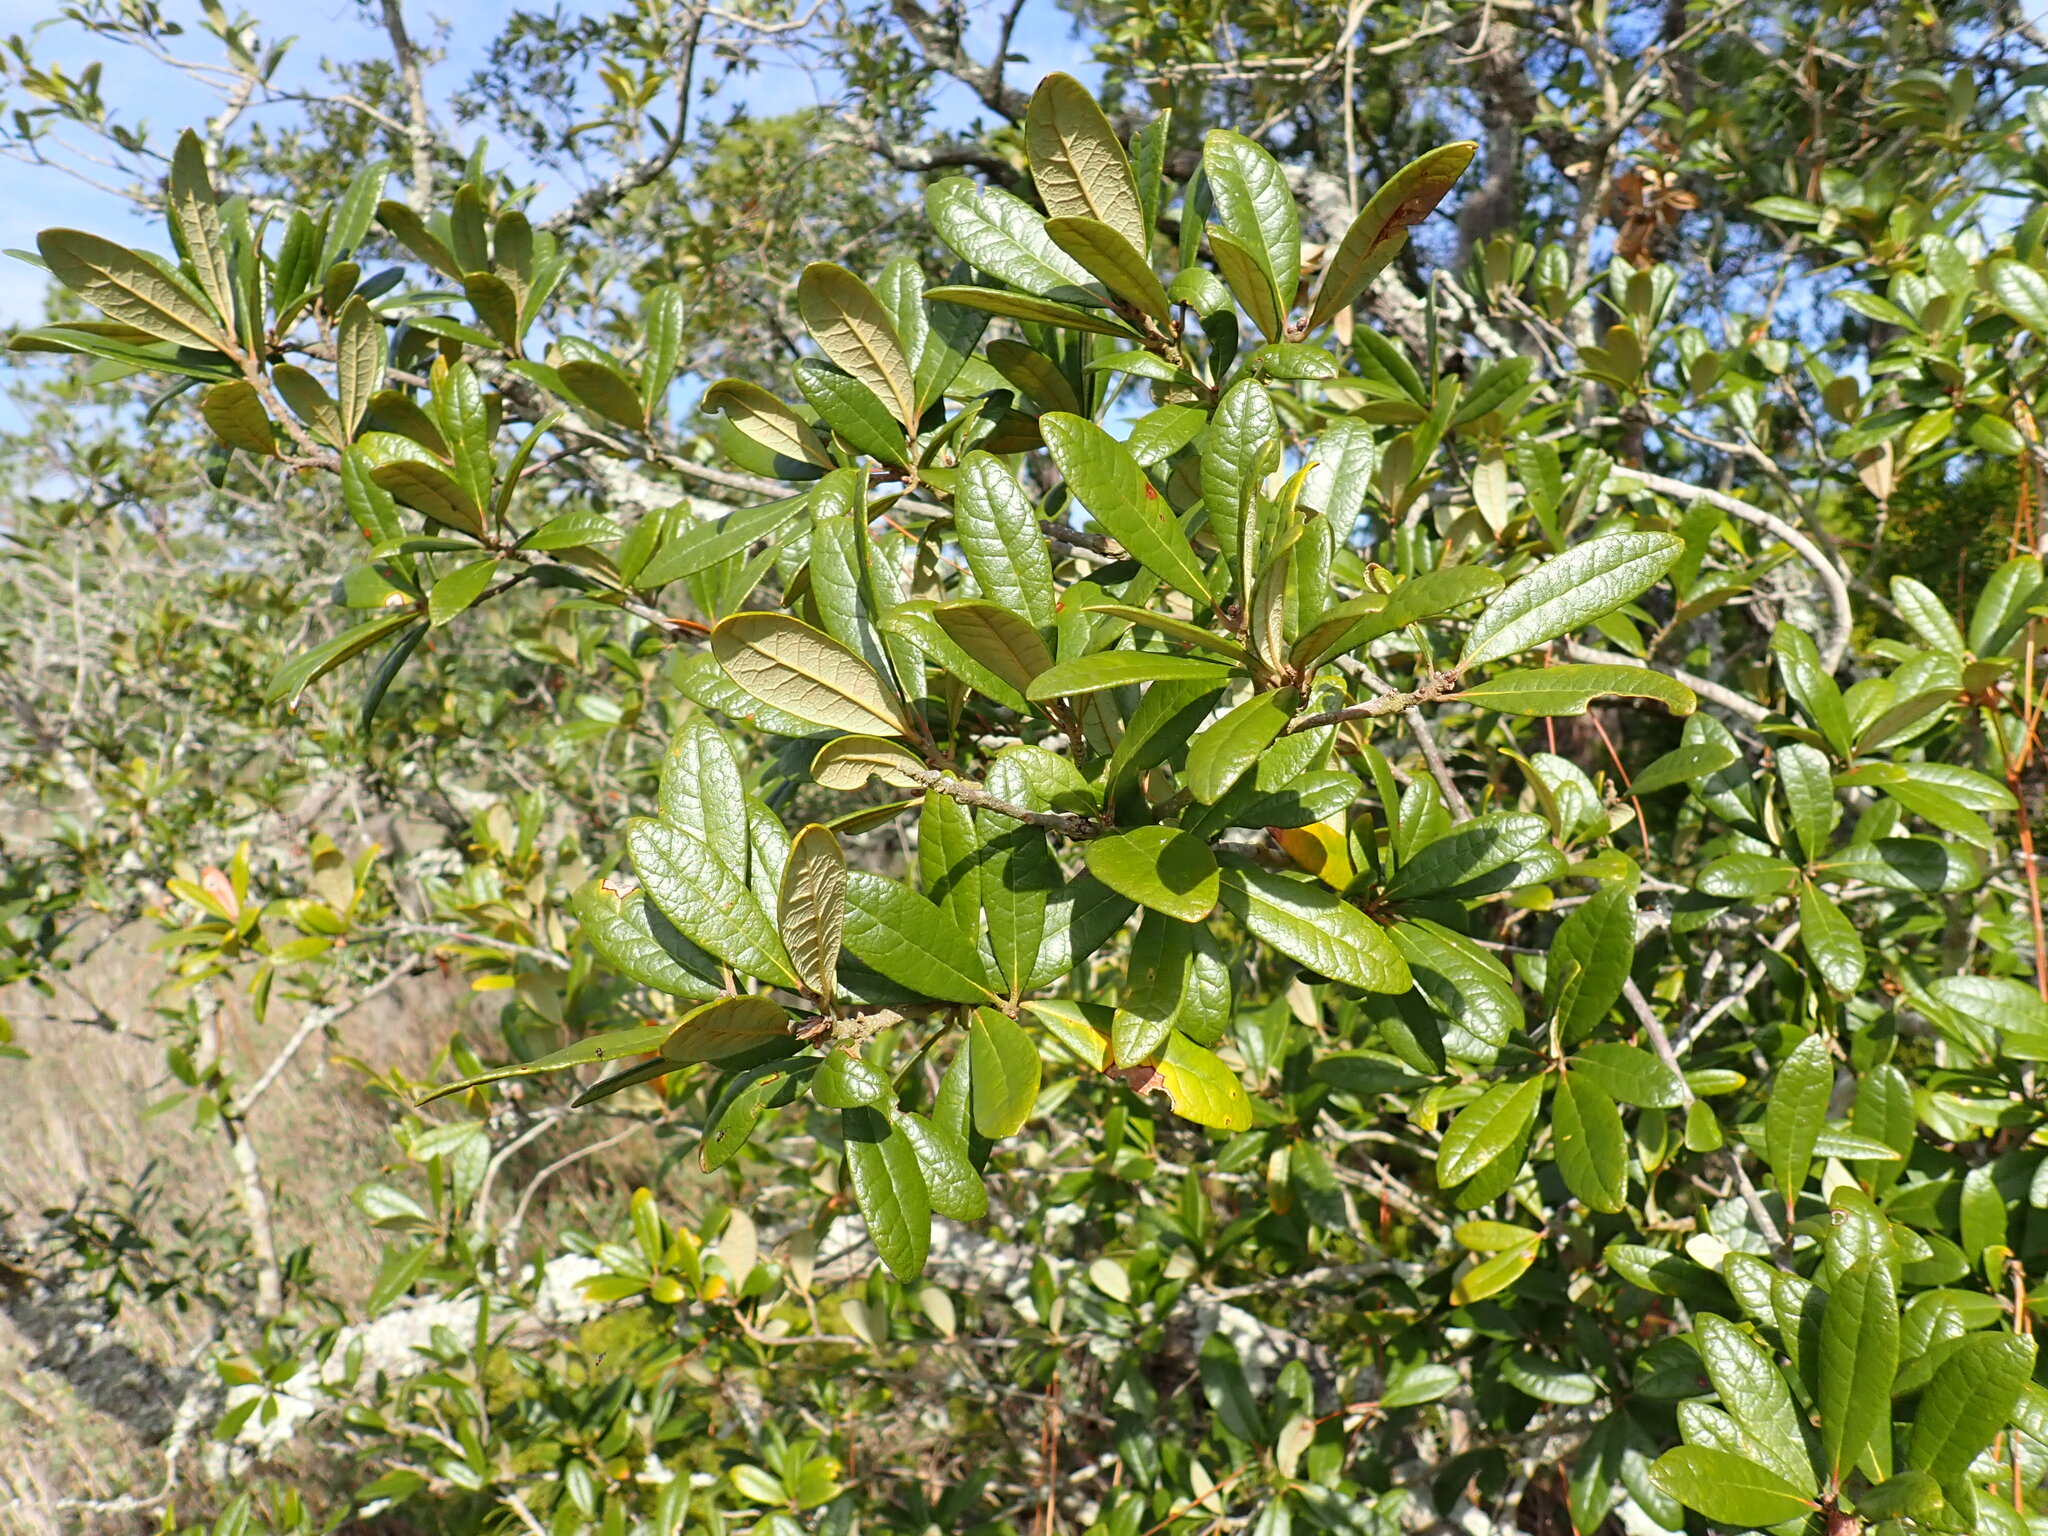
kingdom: Plantae
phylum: Tracheophyta
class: Magnoliopsida
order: Fagales
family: Fagaceae
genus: Quercus
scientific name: Quercus geminata
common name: Sand live oak
